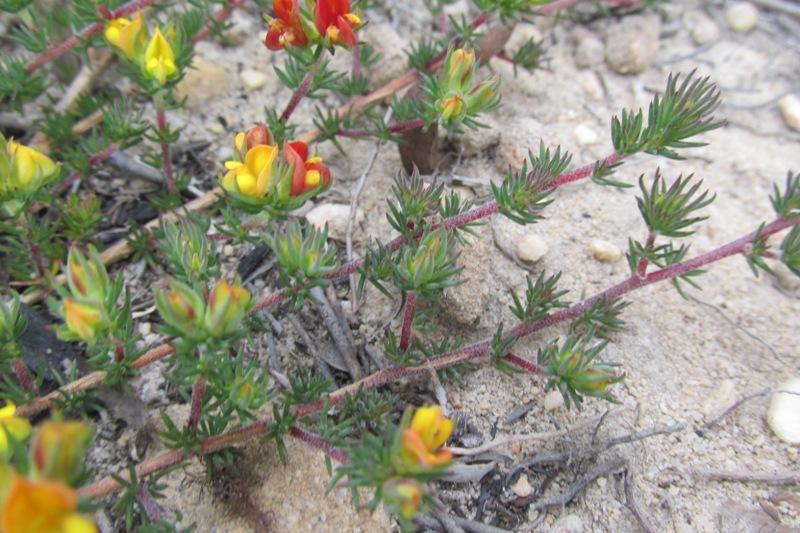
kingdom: Plantae
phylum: Tracheophyta
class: Magnoliopsida
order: Fabales
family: Fabaceae
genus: Aspalathus
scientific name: Aspalathus juniperina
